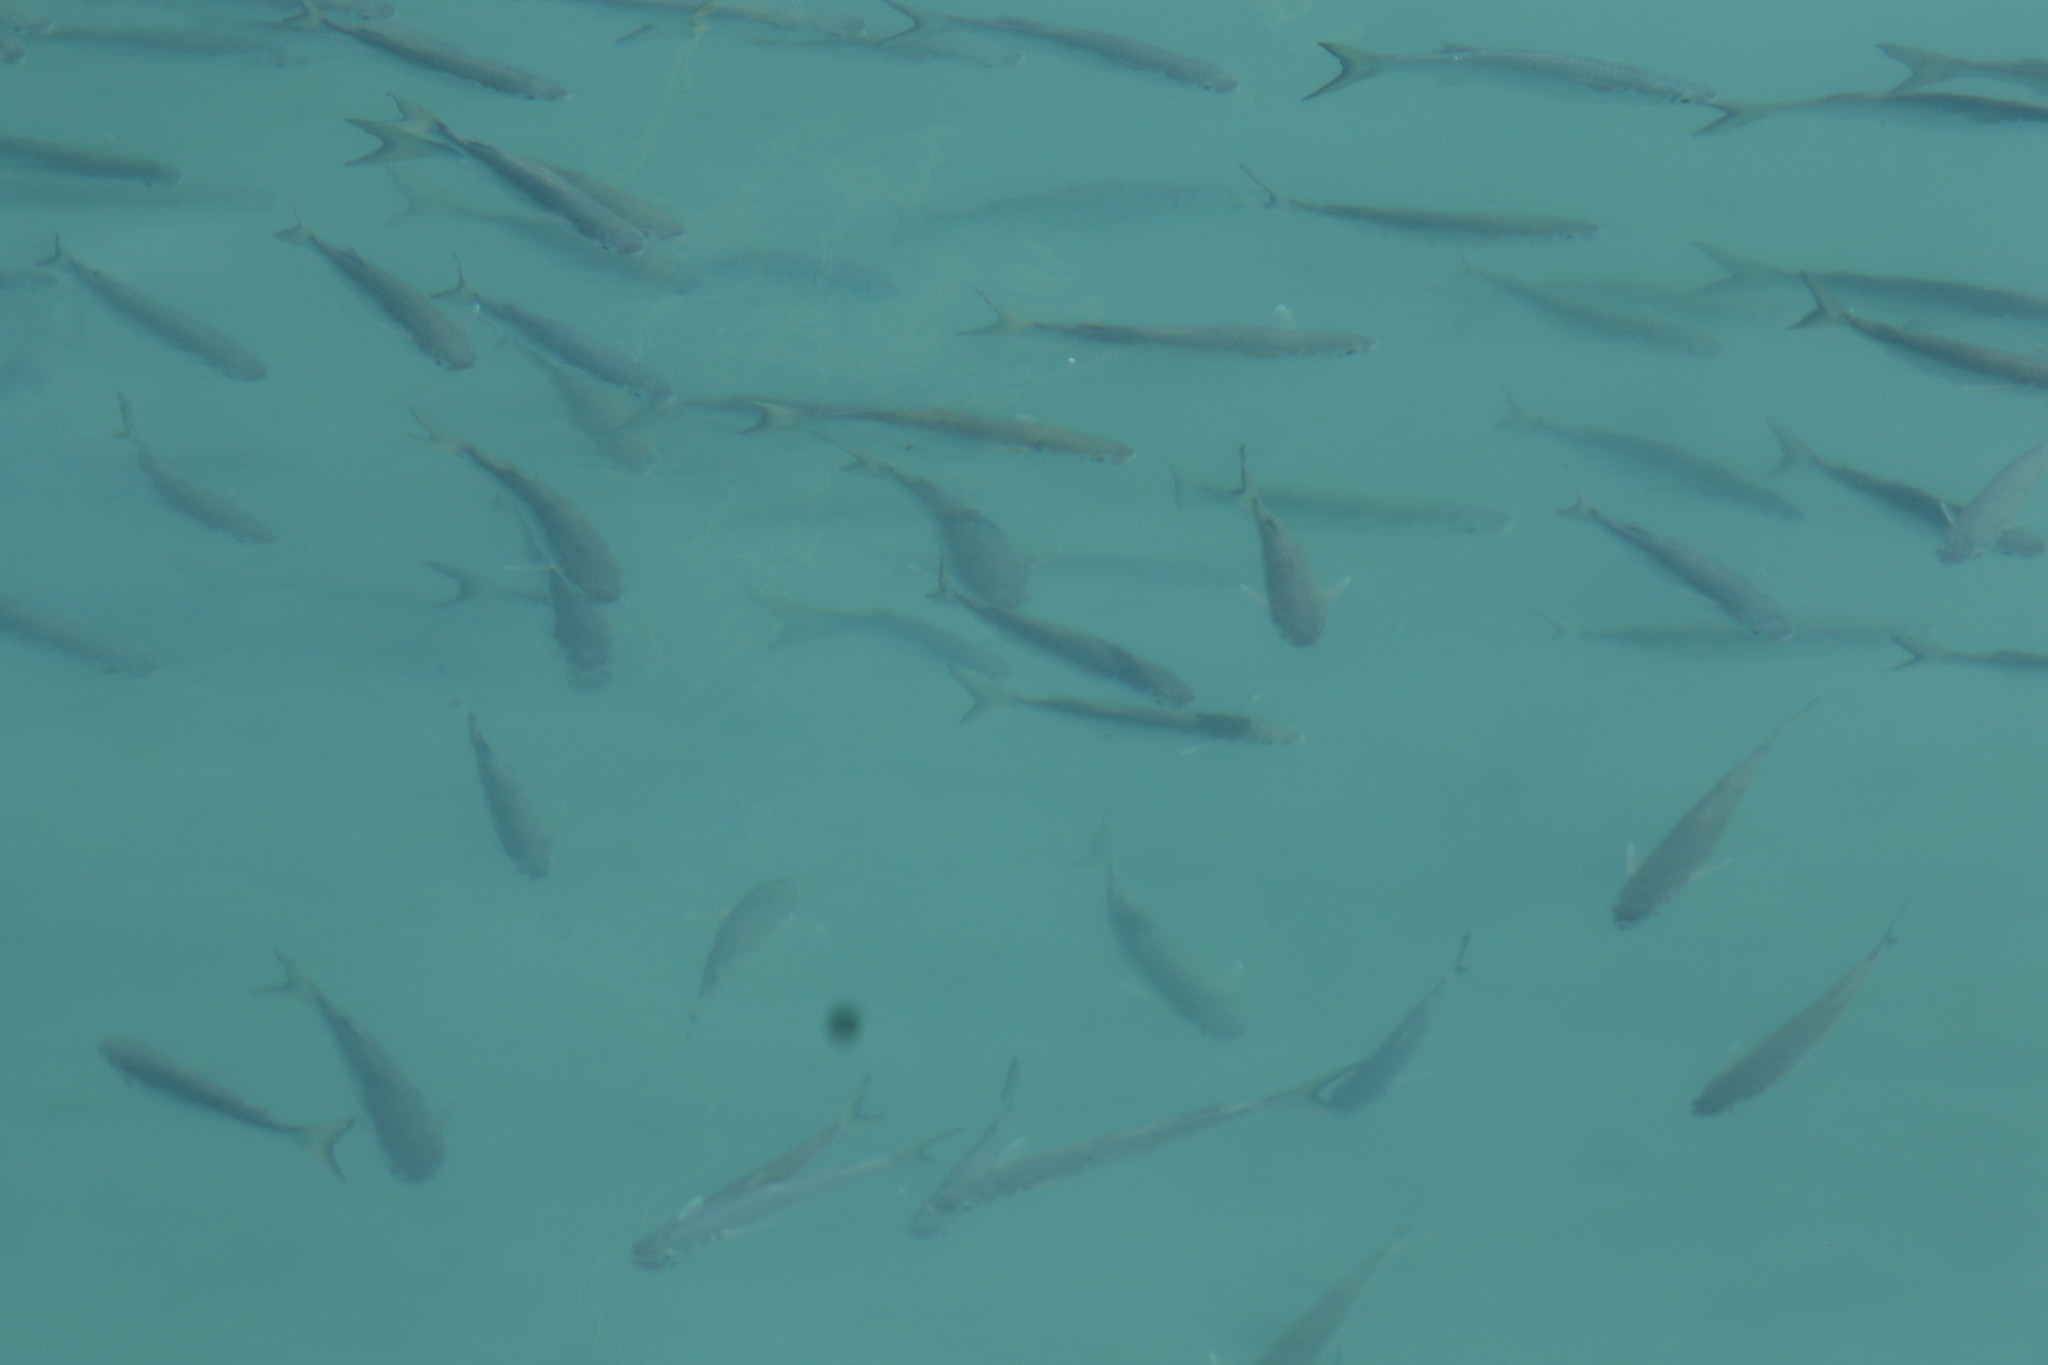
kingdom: Animalia
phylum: Chordata
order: Mugiliformes
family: Mugilidae
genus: Mugil
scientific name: Mugil setosus
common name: Liseta mullet
